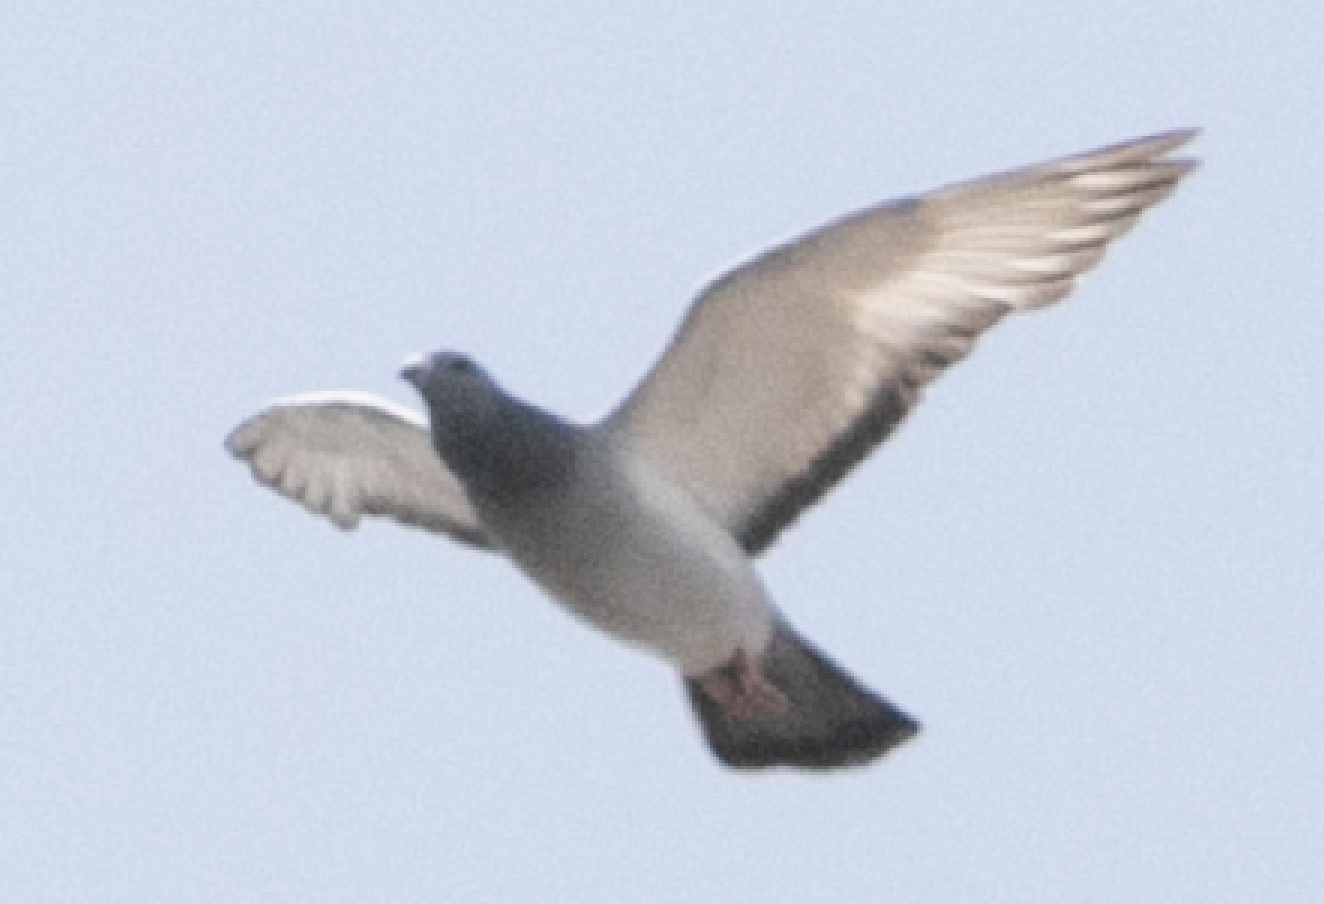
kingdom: Animalia
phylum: Chordata
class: Aves
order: Columbiformes
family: Columbidae
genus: Columba
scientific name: Columba livia
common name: Rock pigeon
